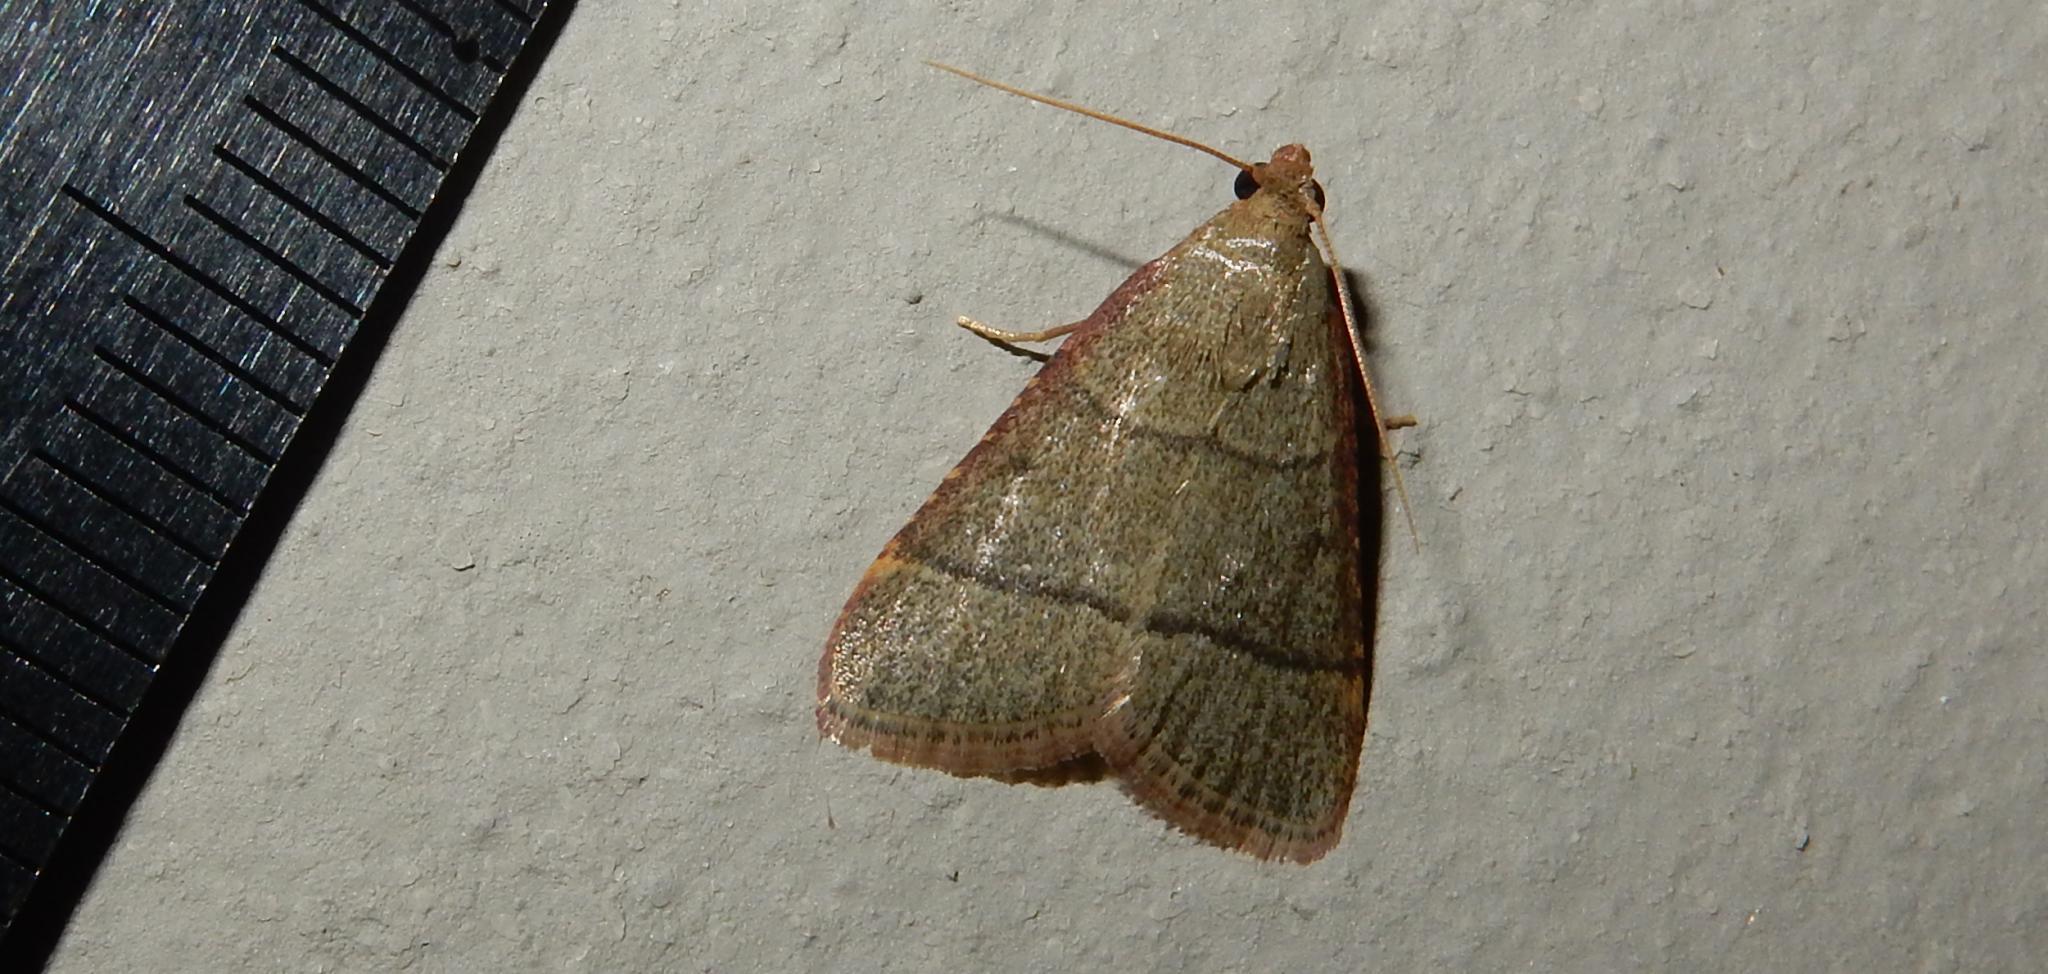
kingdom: Animalia
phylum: Arthropoda
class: Insecta
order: Lepidoptera
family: Pyralidae
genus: Hypsopygia
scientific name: Hypsopygia nostralis
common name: Southern hayworm moth
